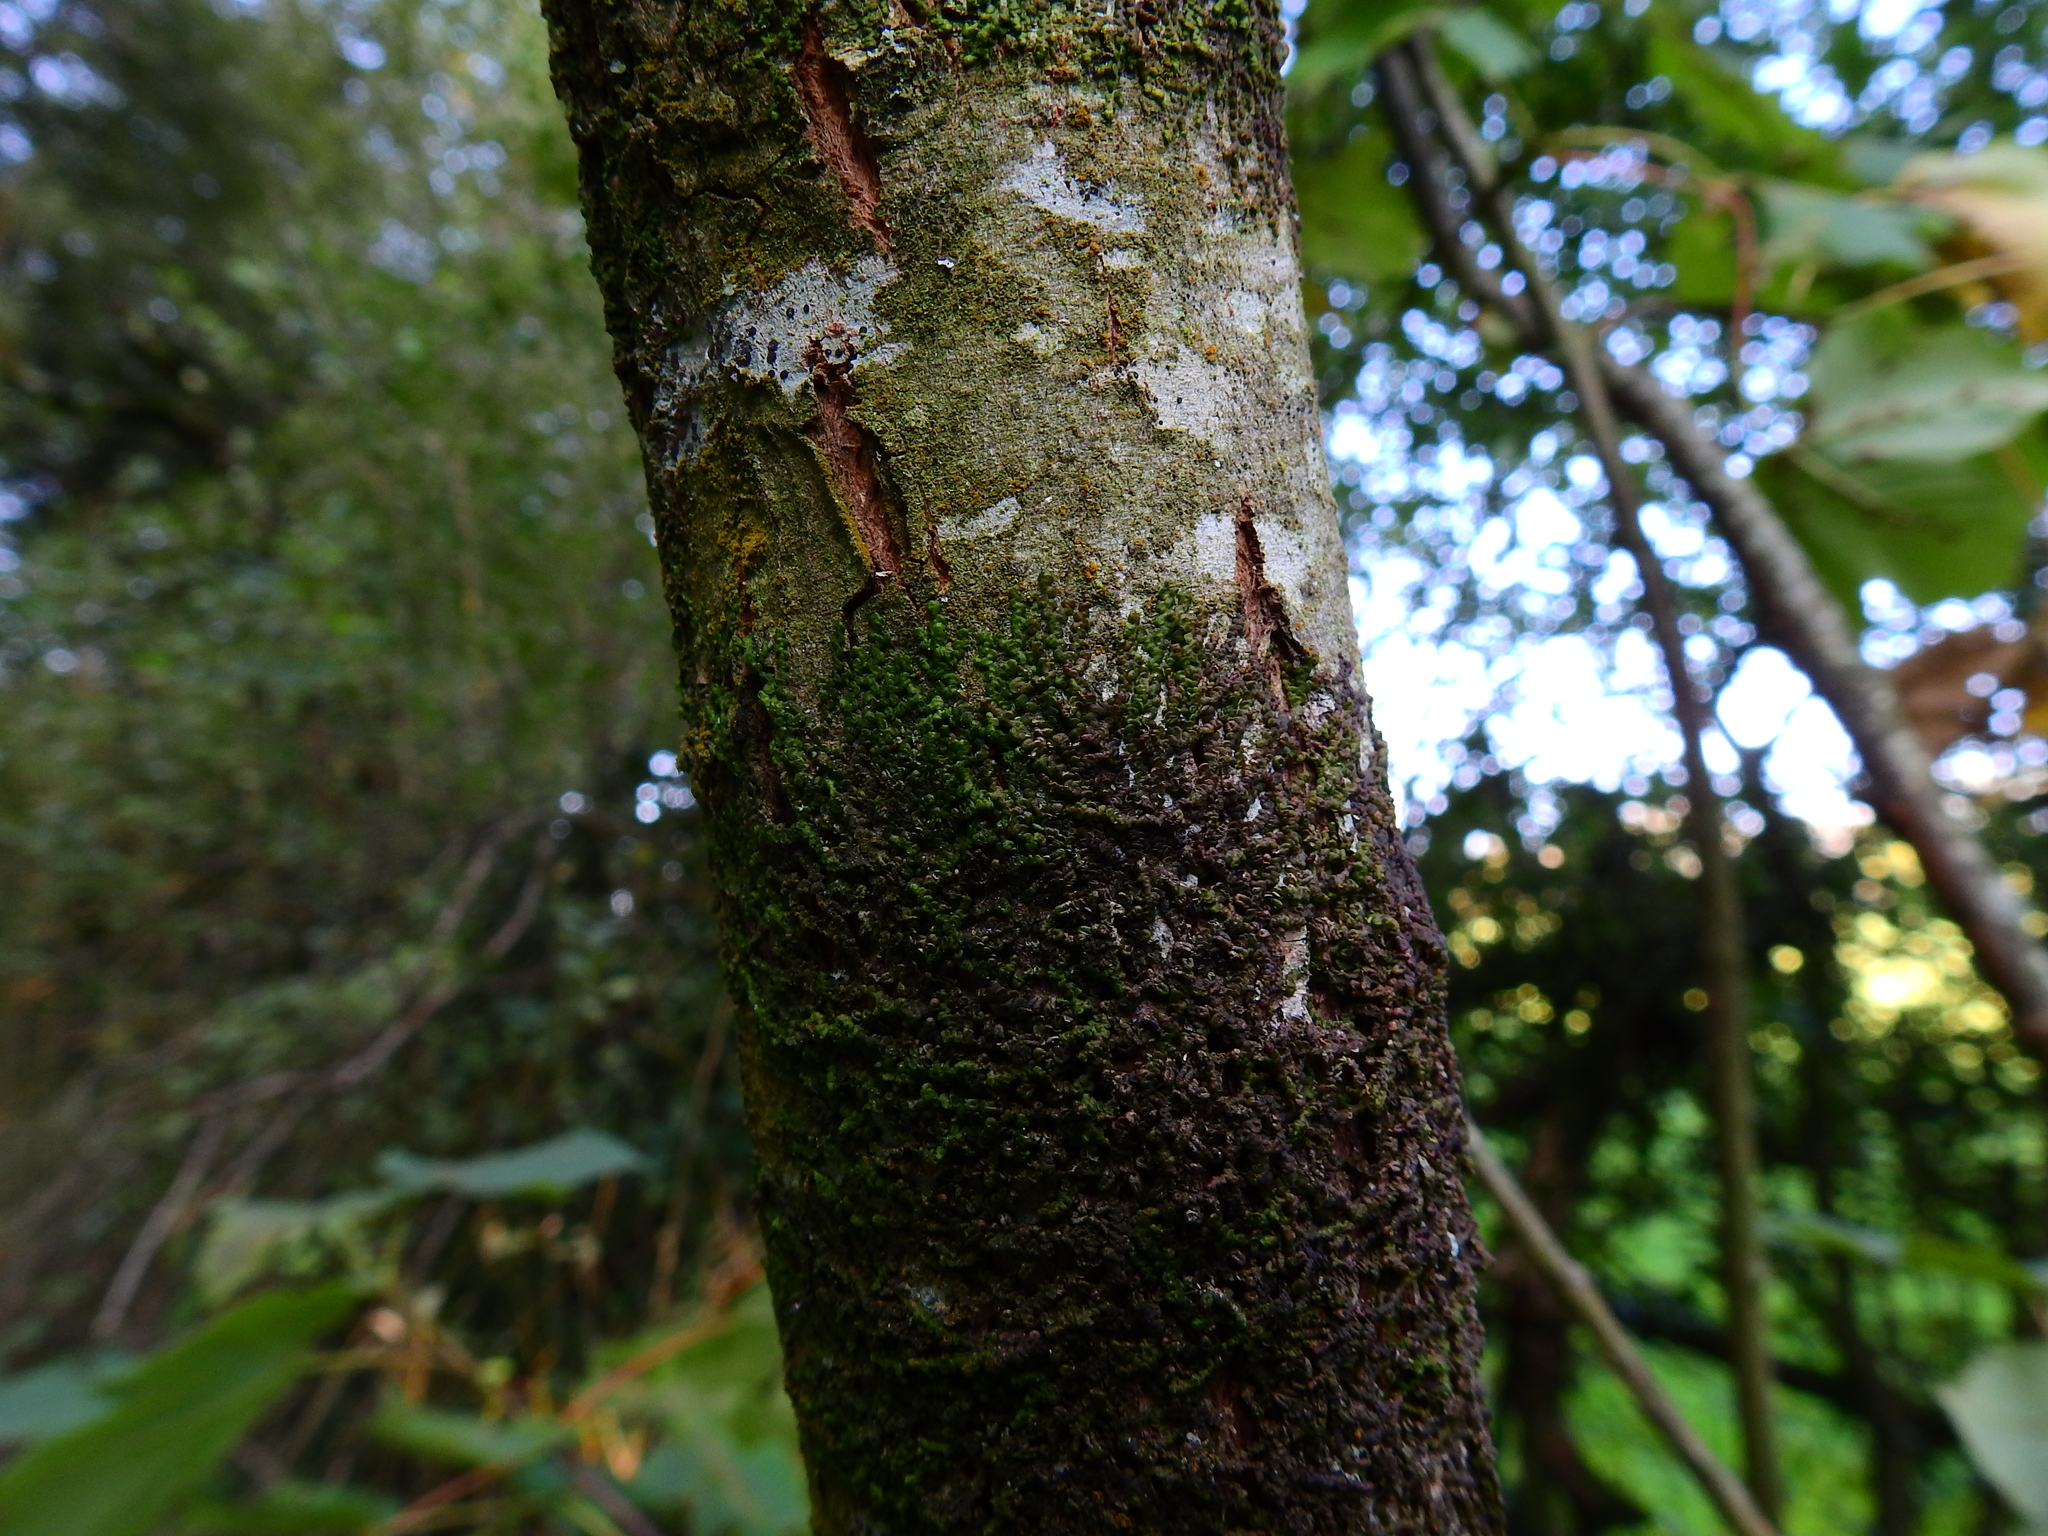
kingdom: Plantae
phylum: Marchantiophyta
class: Jungermanniopsida
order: Porellales
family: Frullaniaceae
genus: Frullania
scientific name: Frullania dilatata
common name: Dilated scalewort
